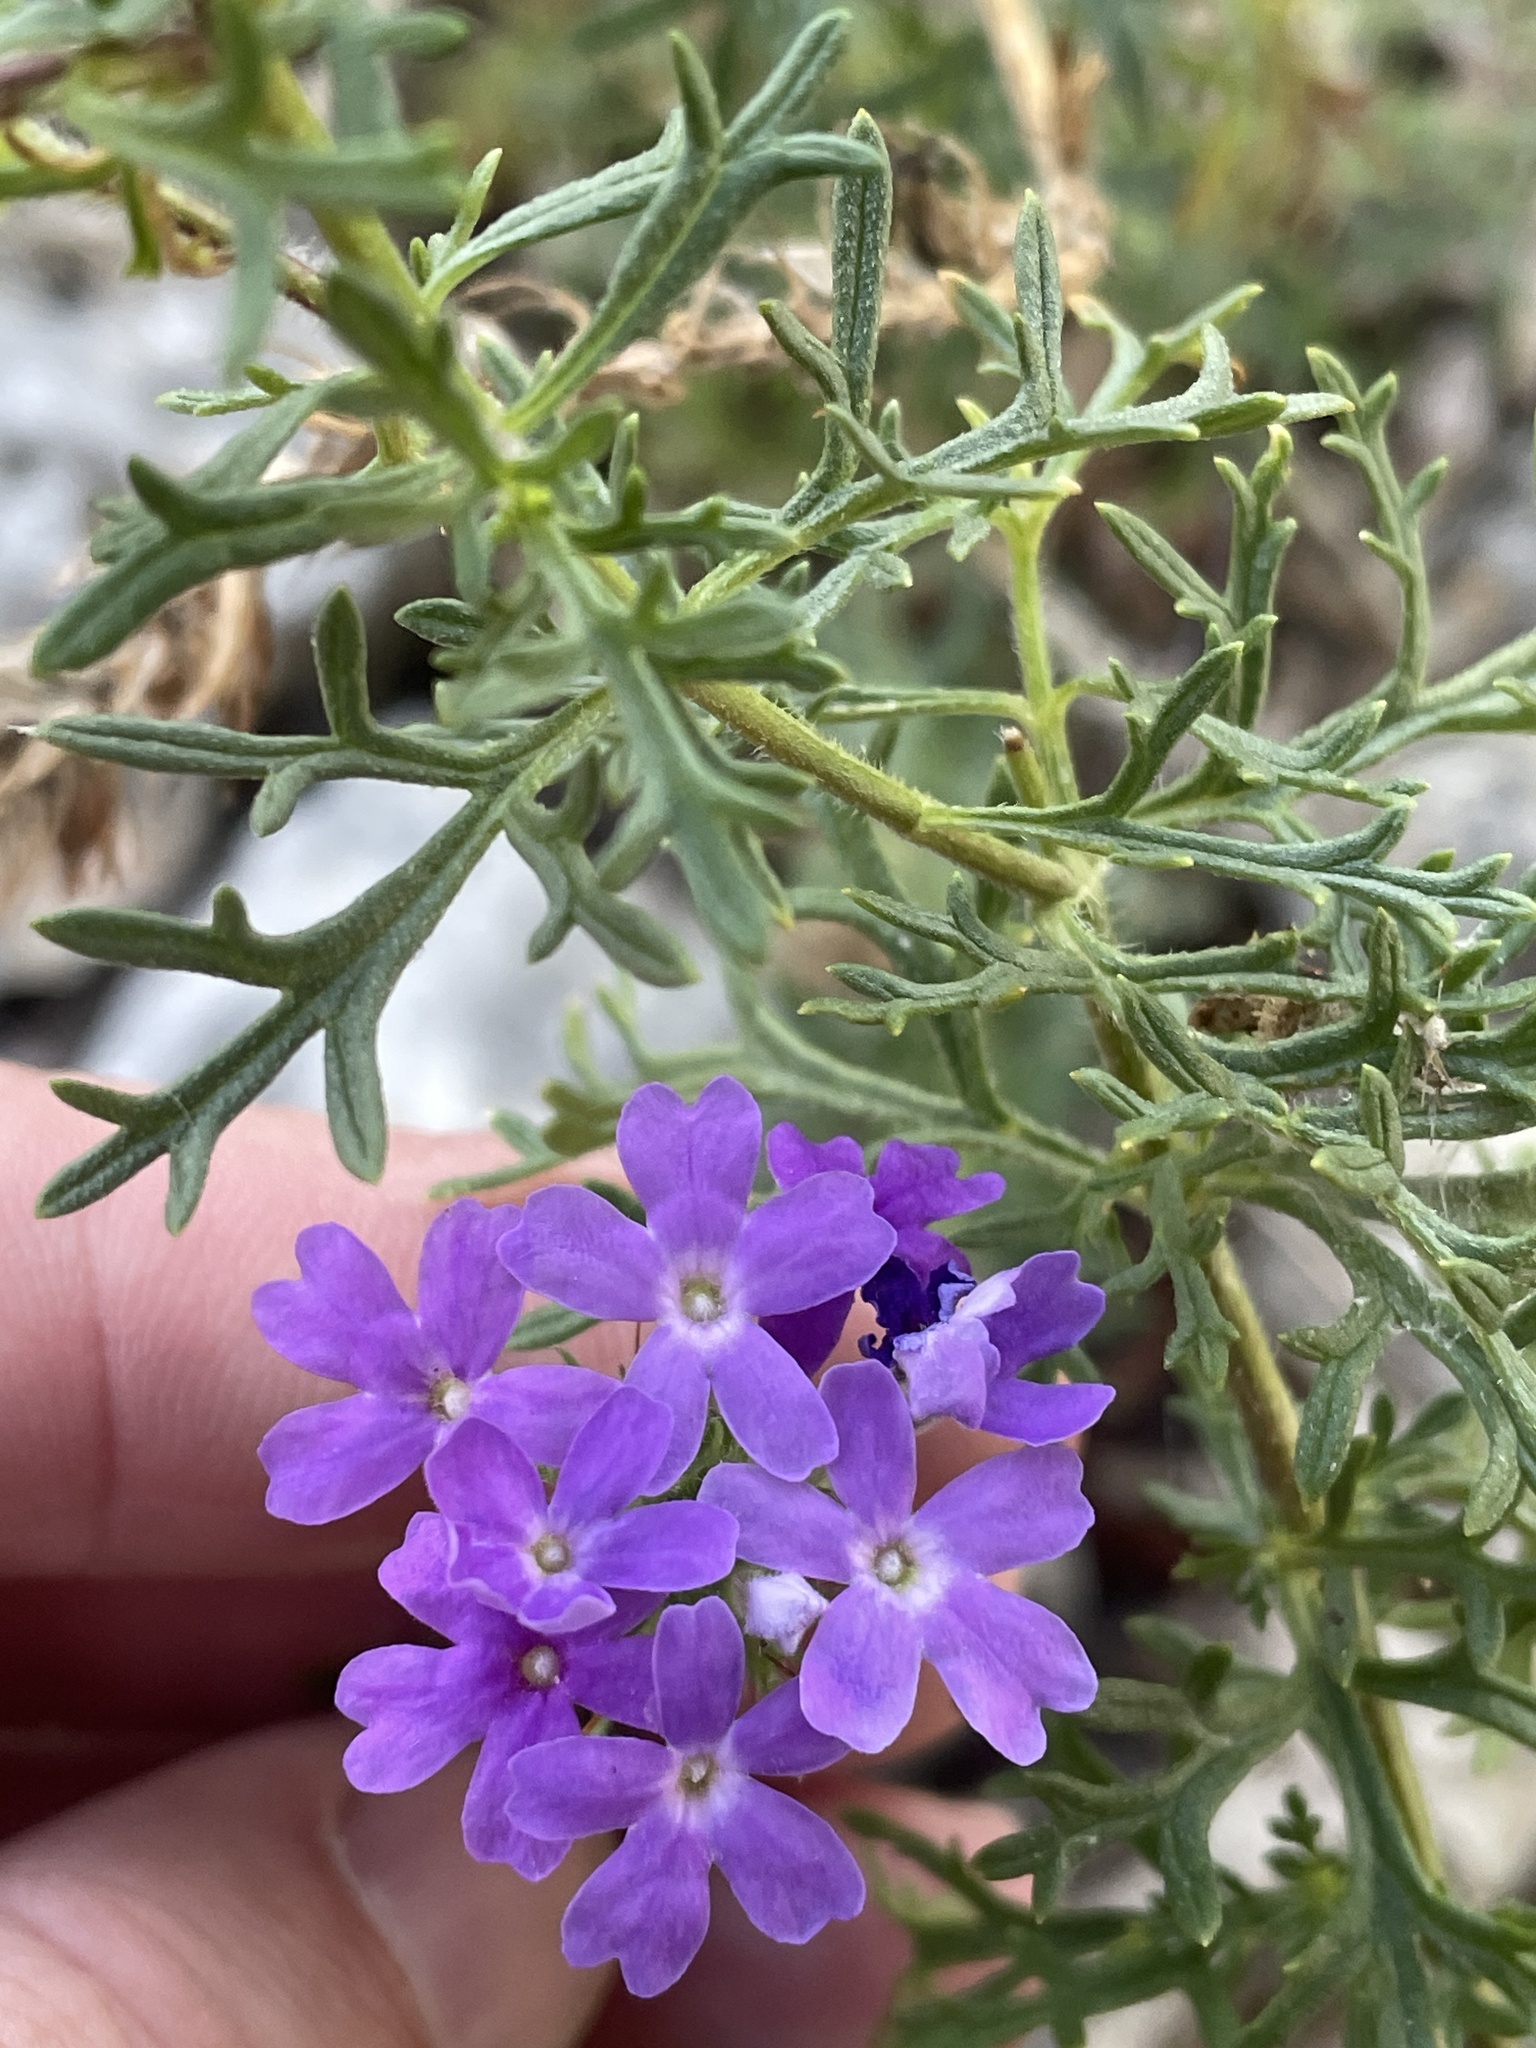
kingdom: Plantae
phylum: Tracheophyta
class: Magnoliopsida
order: Lamiales
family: Verbenaceae
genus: Verbena
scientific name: Verbena bipinnatifida
